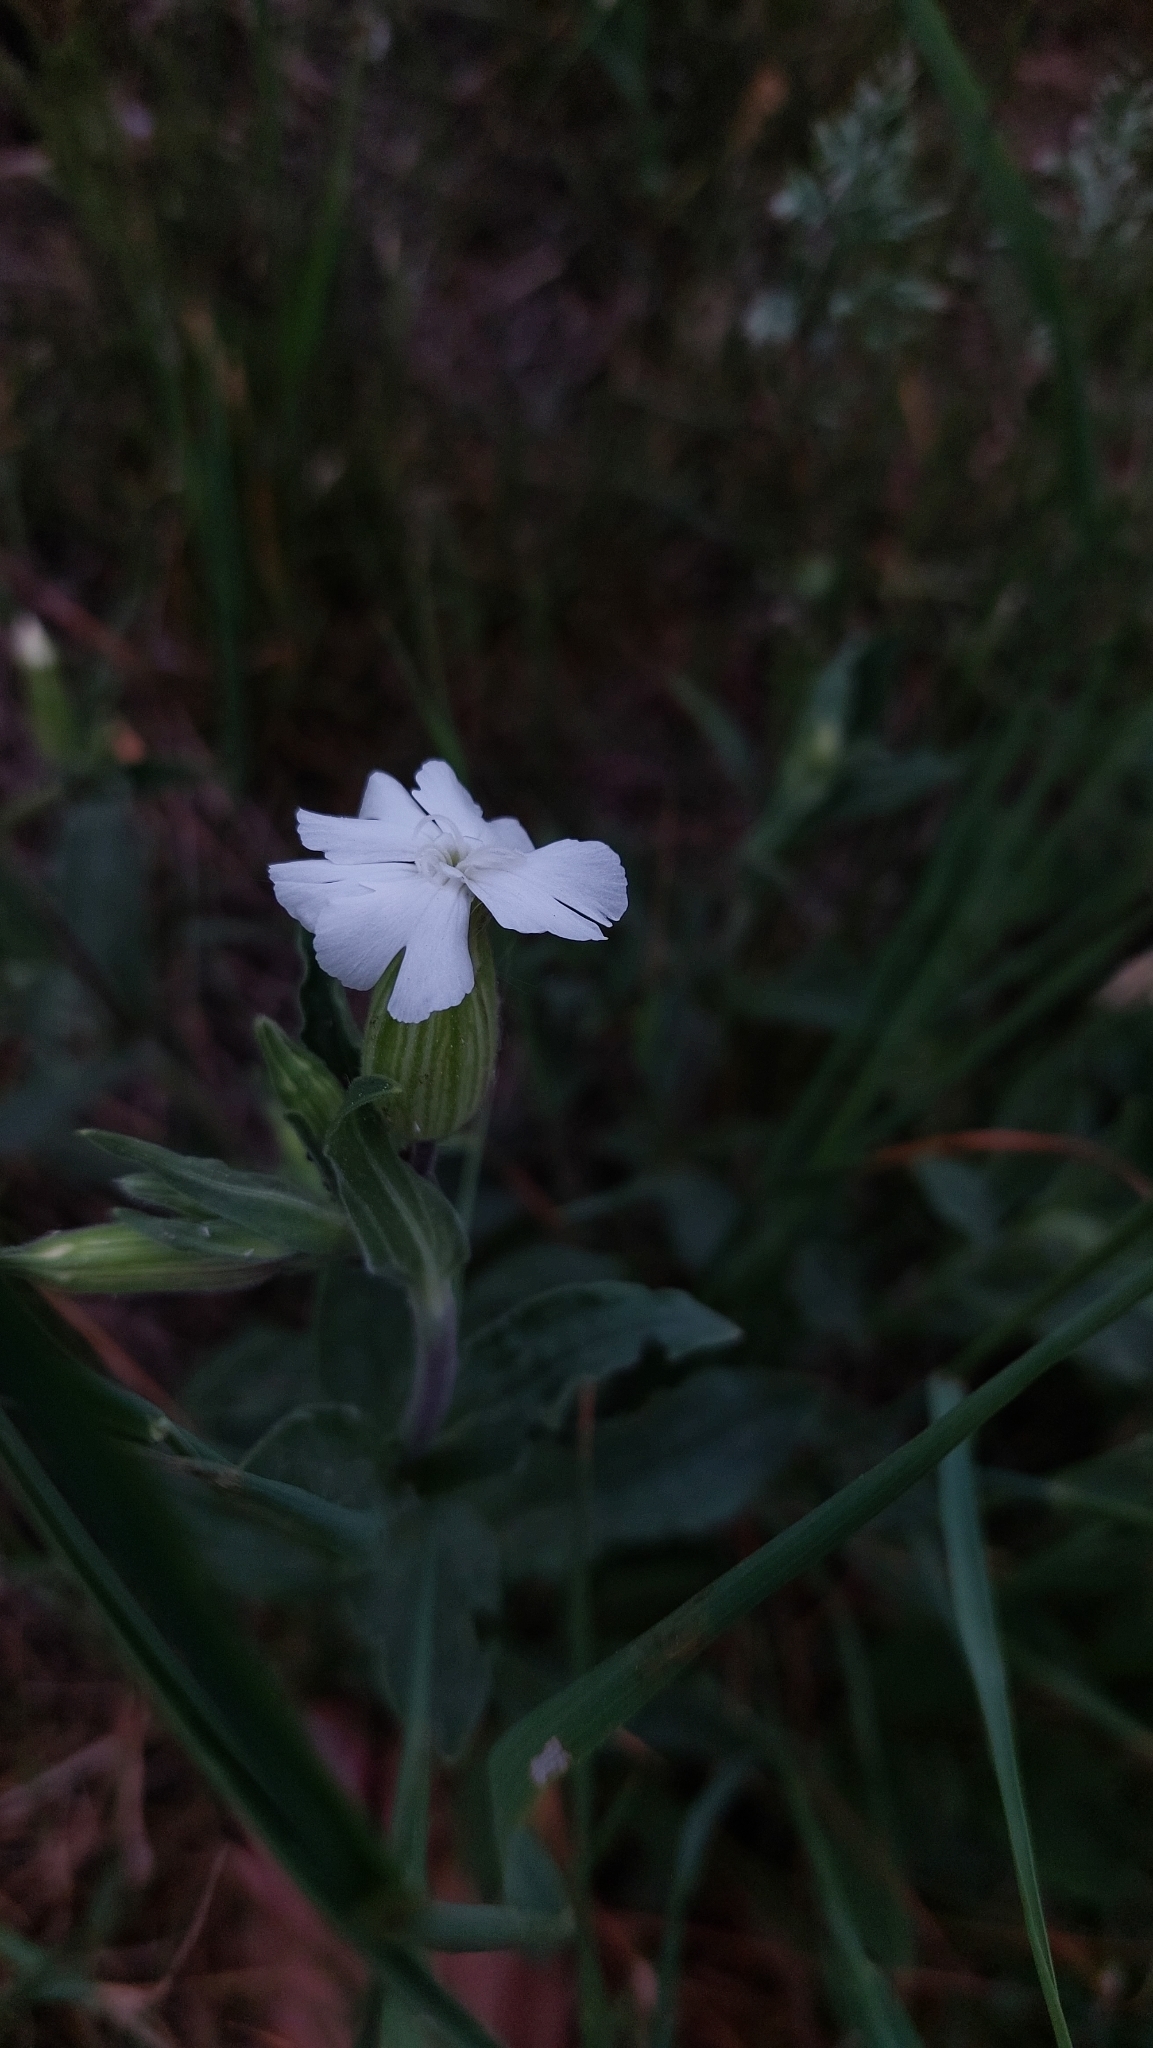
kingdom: Plantae
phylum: Tracheophyta
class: Magnoliopsida
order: Caryophyllales
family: Caryophyllaceae
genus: Silene
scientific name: Silene latifolia
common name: White campion
